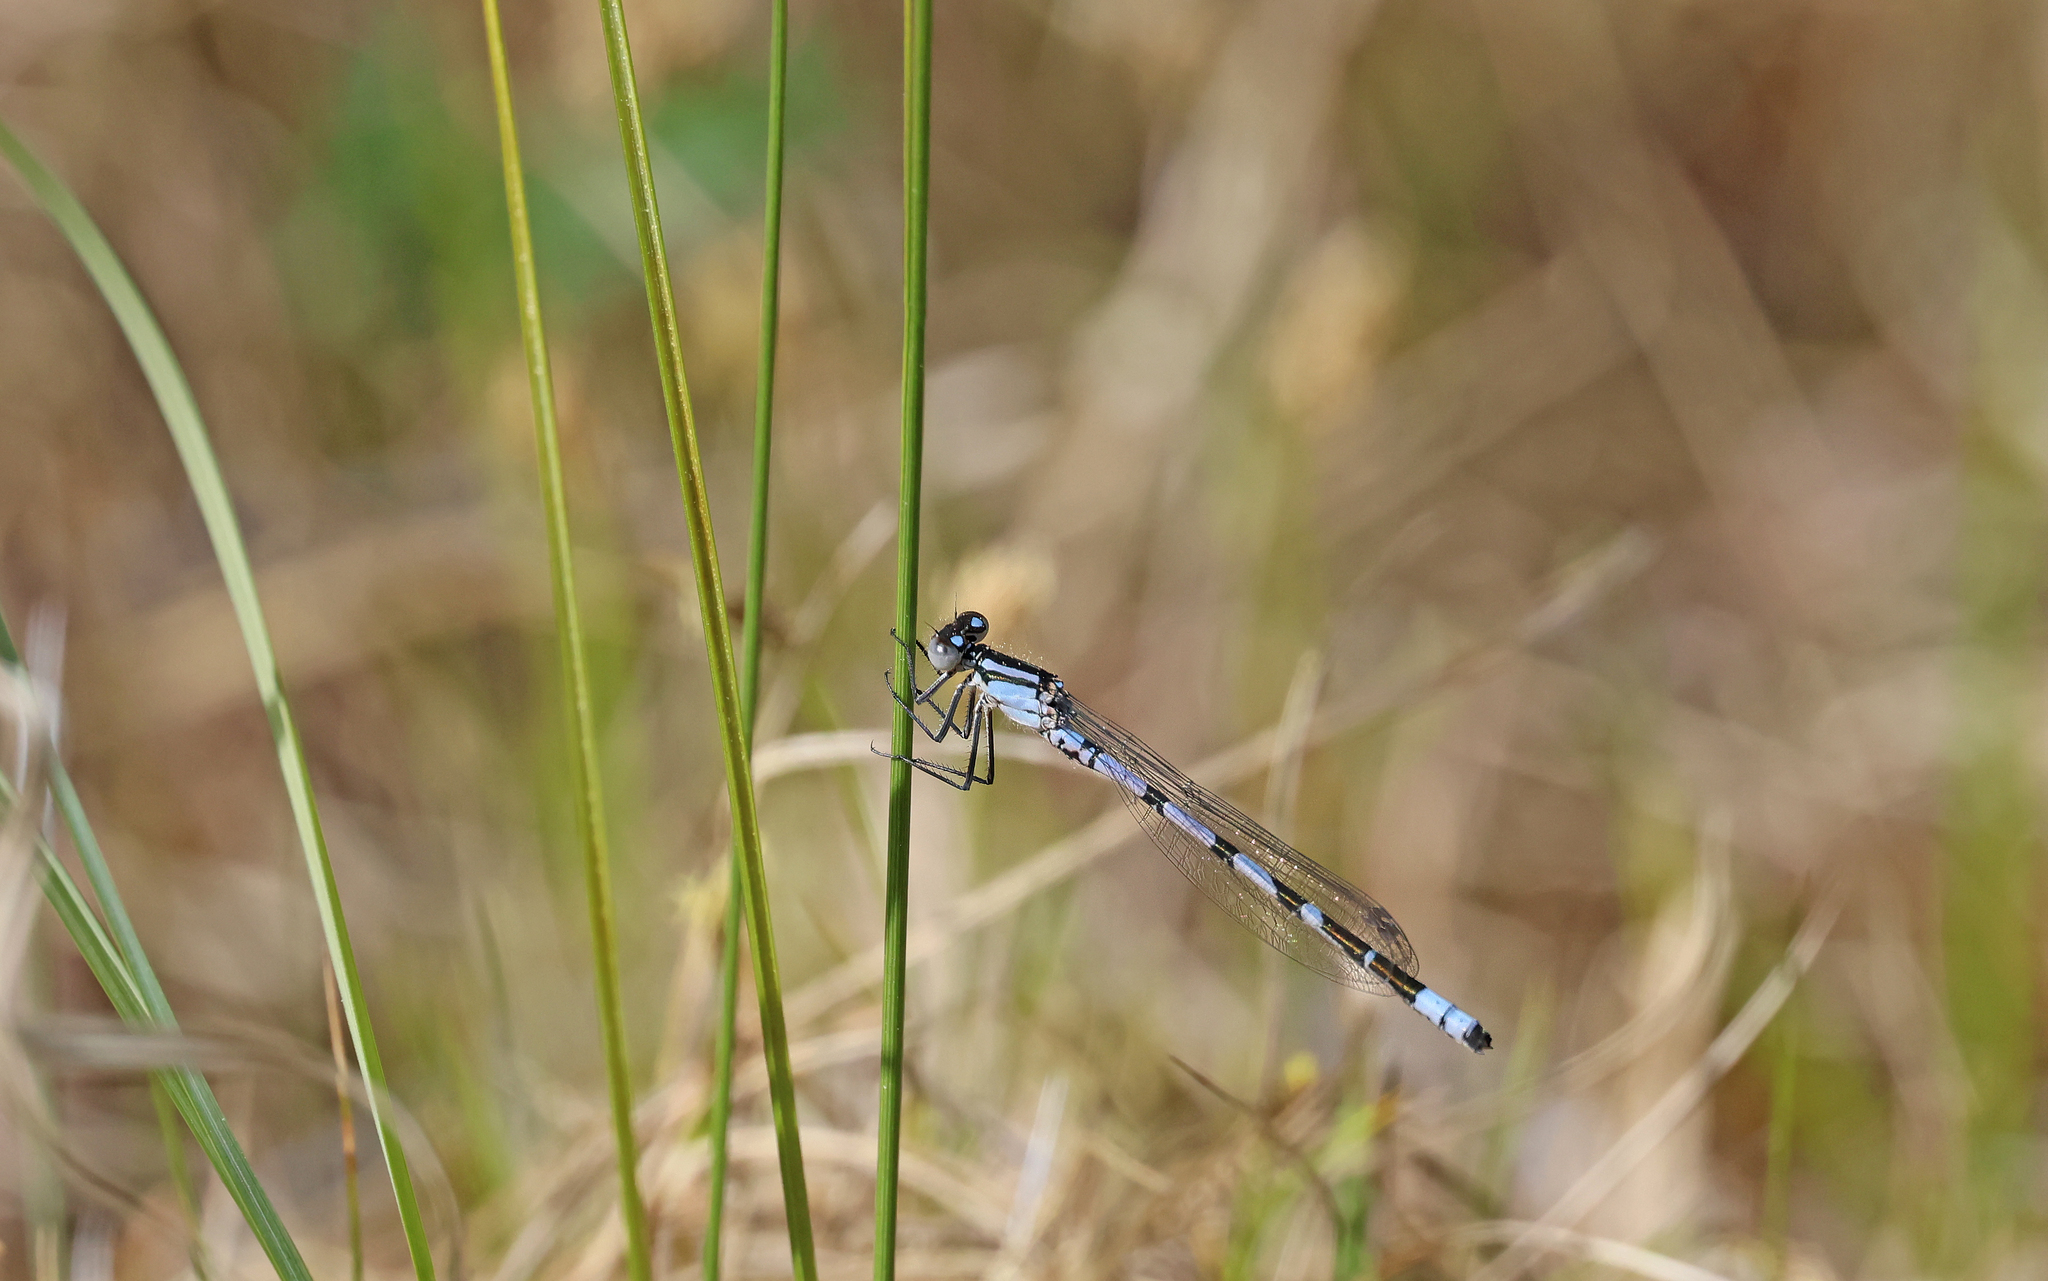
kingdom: Animalia
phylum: Arthropoda
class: Insecta
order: Odonata
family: Coenagrionidae
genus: Enallagma
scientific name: Enallagma cyathigerum
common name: Common blue damselfly
